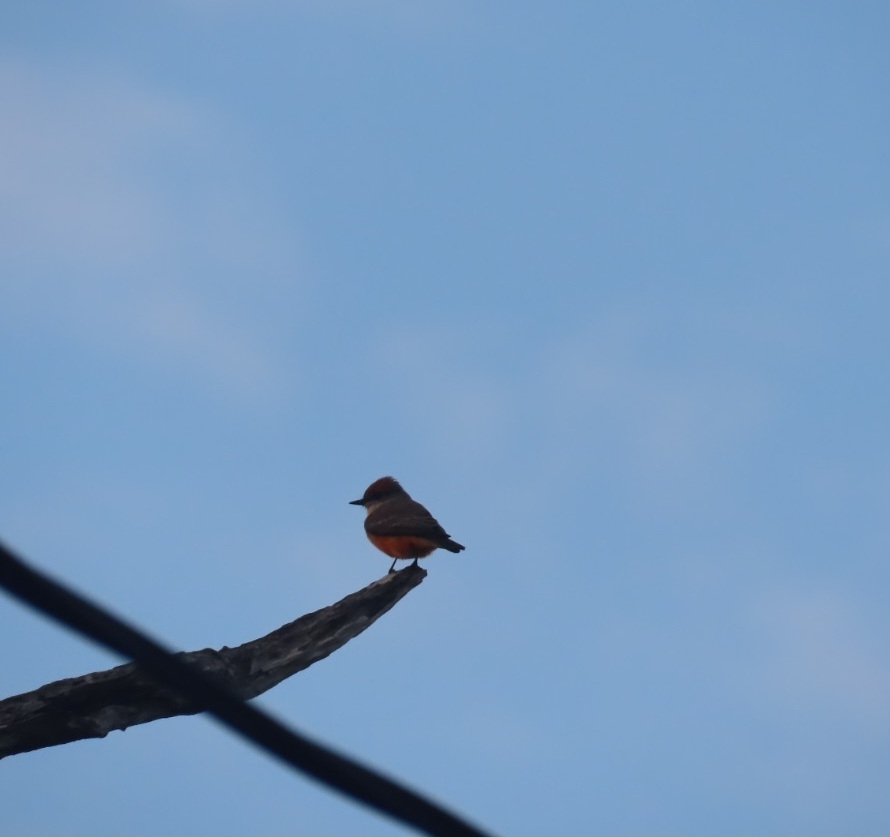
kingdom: Animalia
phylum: Chordata
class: Aves
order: Passeriformes
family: Tyrannidae
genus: Pyrocephalus
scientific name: Pyrocephalus rubinus
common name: Vermilion flycatcher
